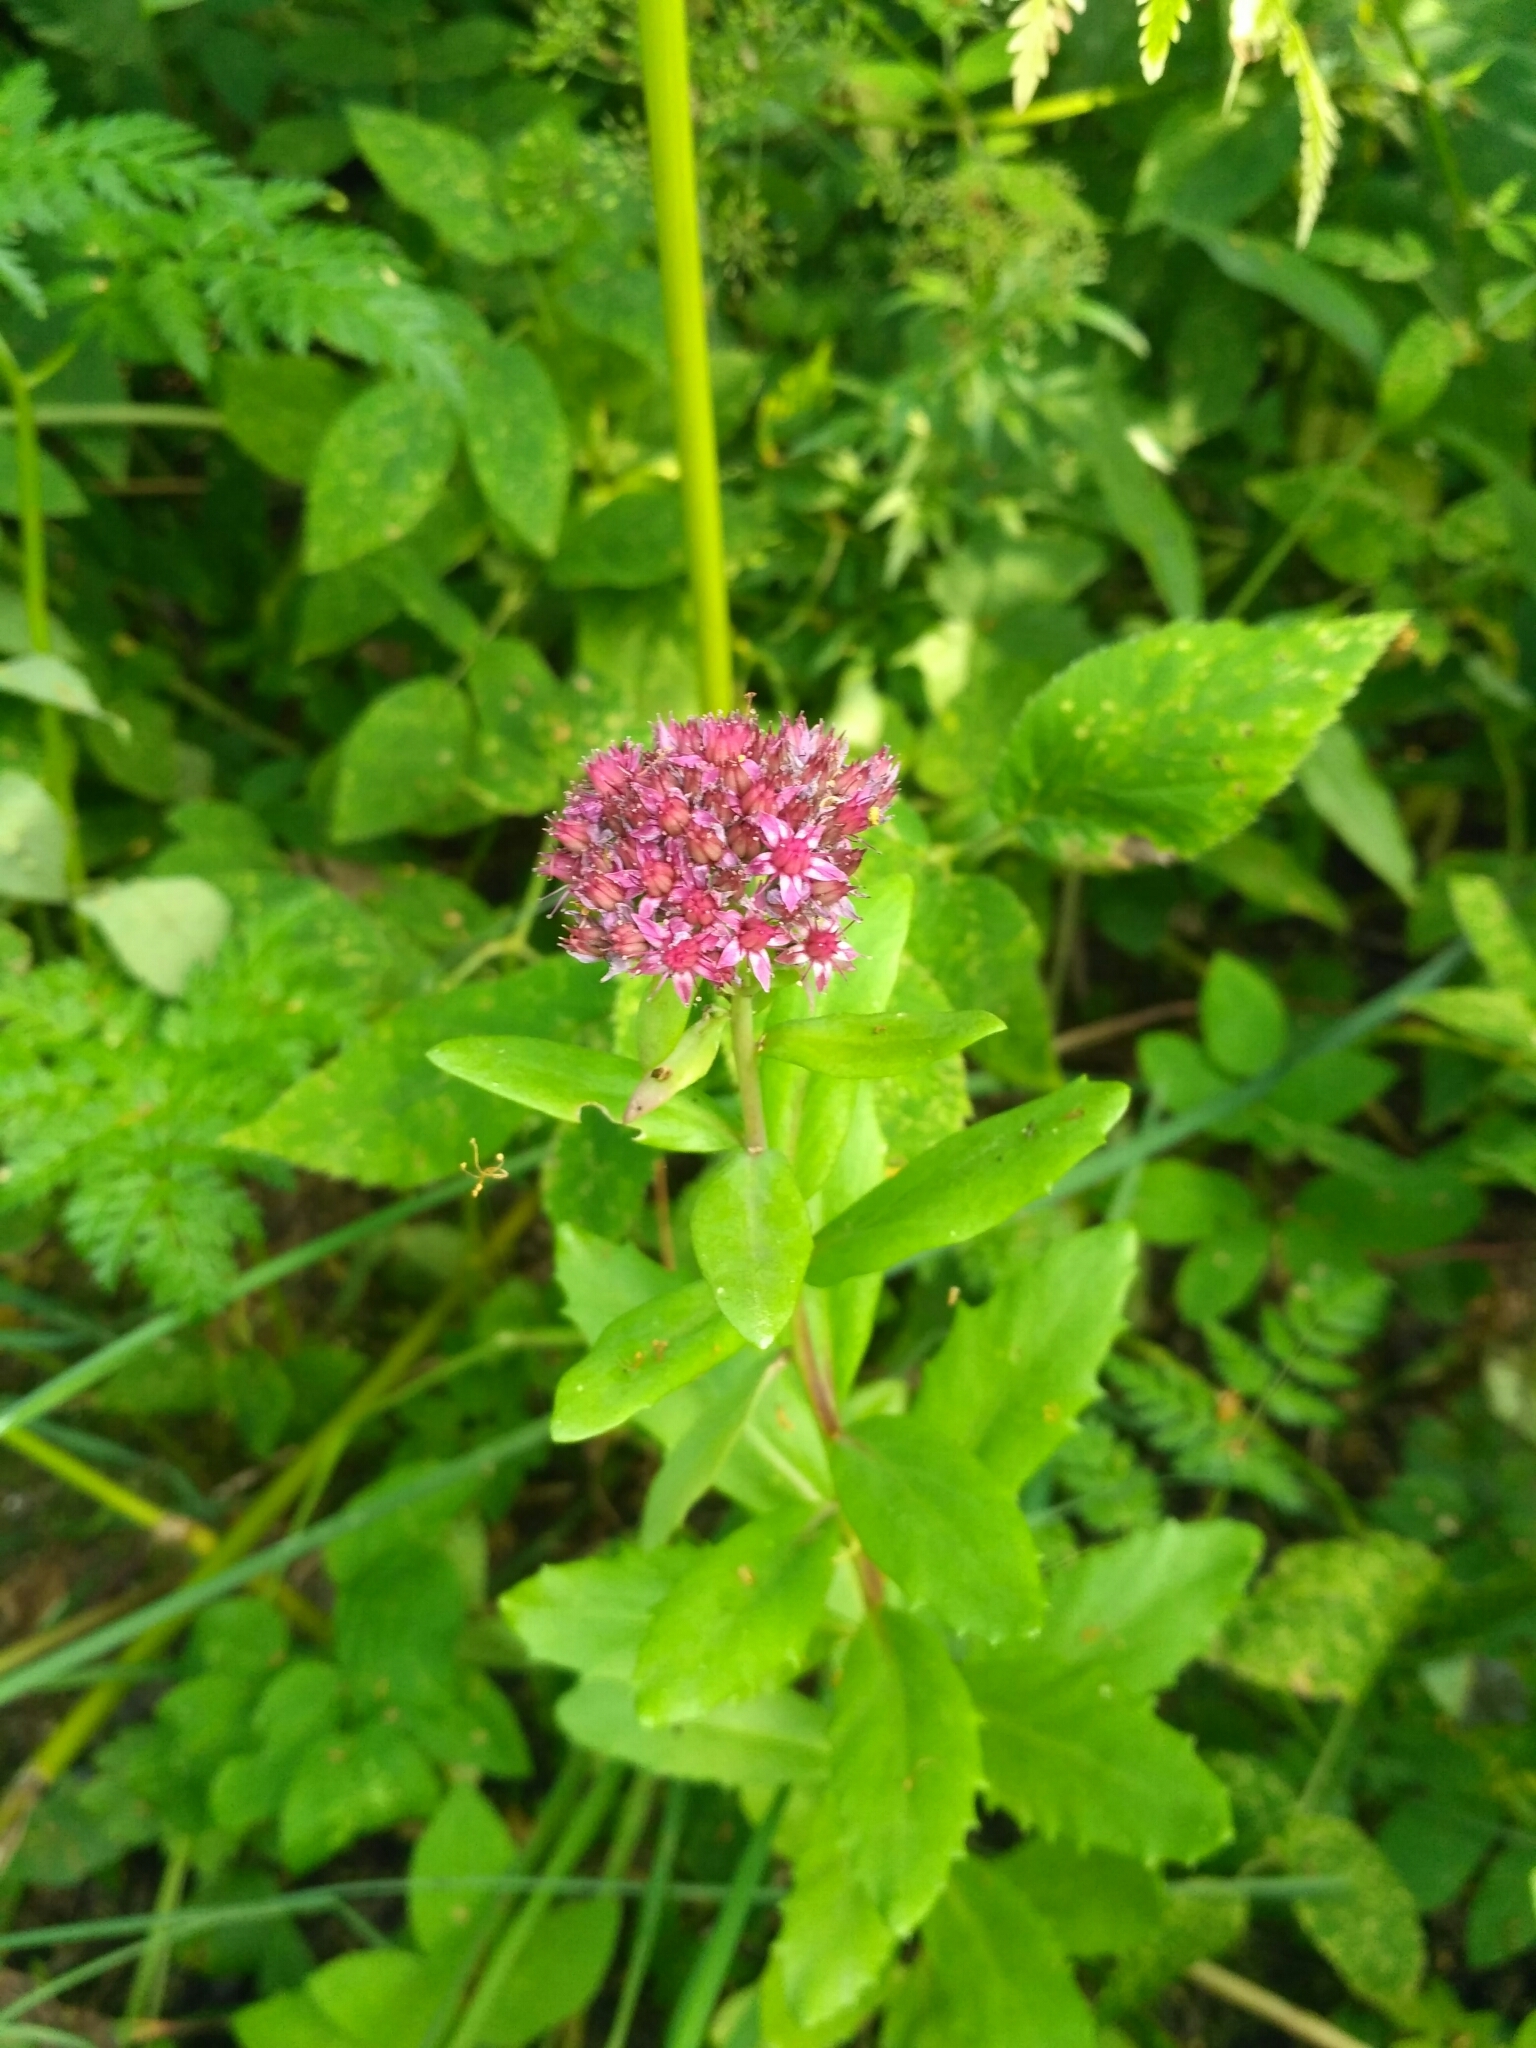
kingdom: Plantae
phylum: Tracheophyta
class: Magnoliopsida
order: Saxifragales
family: Crassulaceae
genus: Hylotelephium
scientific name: Hylotelephium telephium
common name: Live-forever
